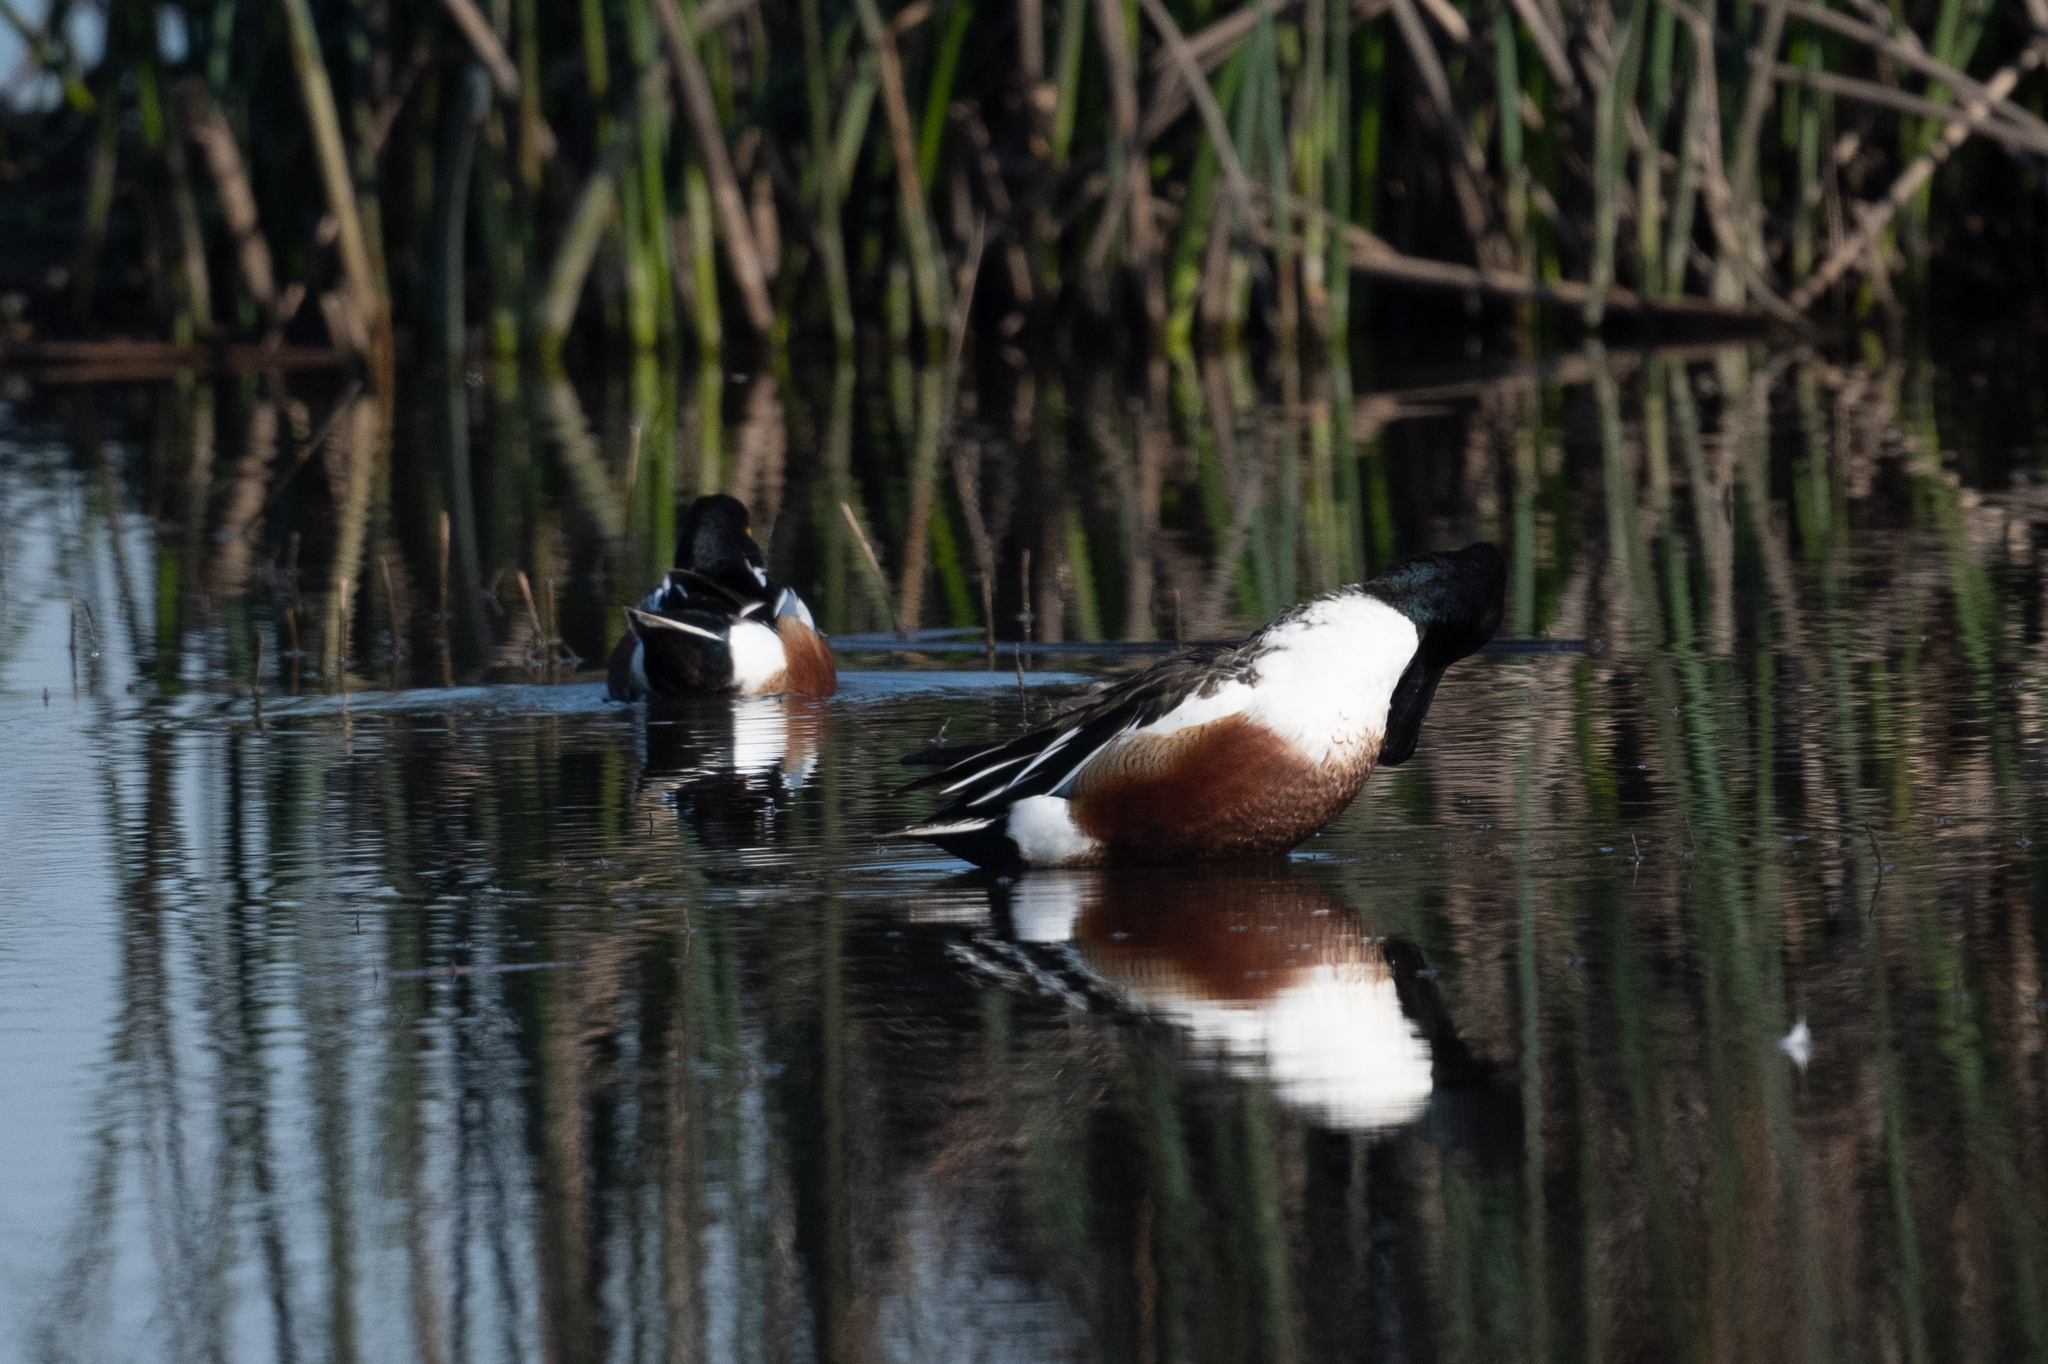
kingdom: Animalia
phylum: Chordata
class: Aves
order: Anseriformes
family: Anatidae
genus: Spatula
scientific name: Spatula clypeata
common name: Northern shoveler
